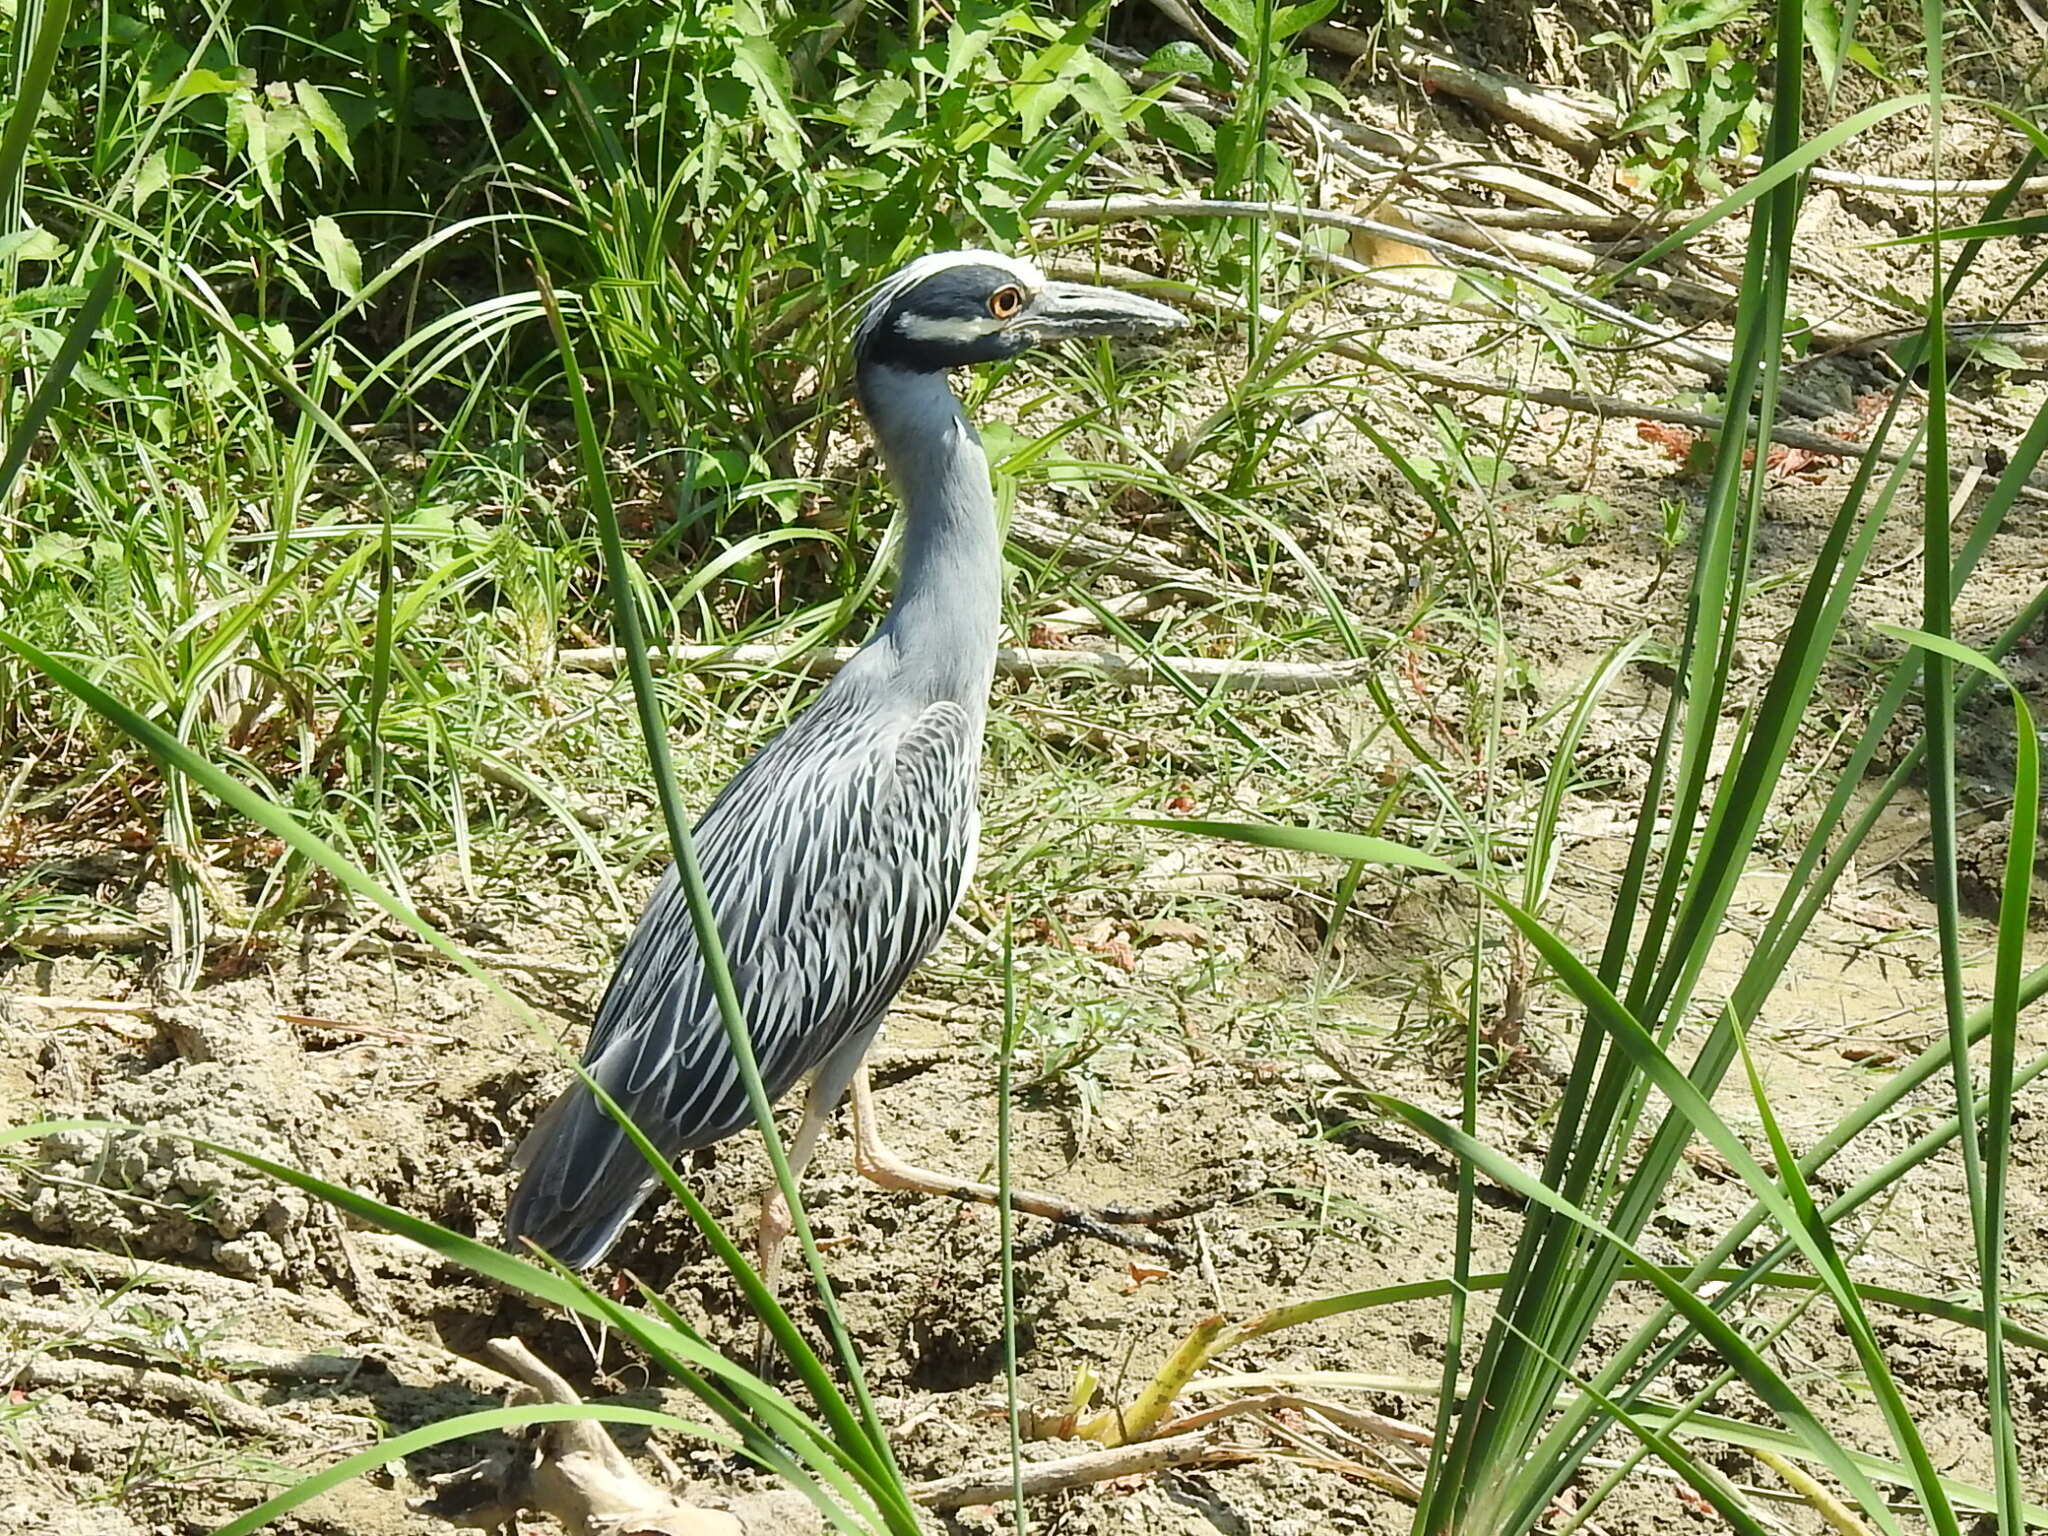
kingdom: Animalia
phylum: Chordata
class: Aves
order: Pelecaniformes
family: Ardeidae
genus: Nyctanassa
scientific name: Nyctanassa violacea
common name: Yellow-crowned night heron
